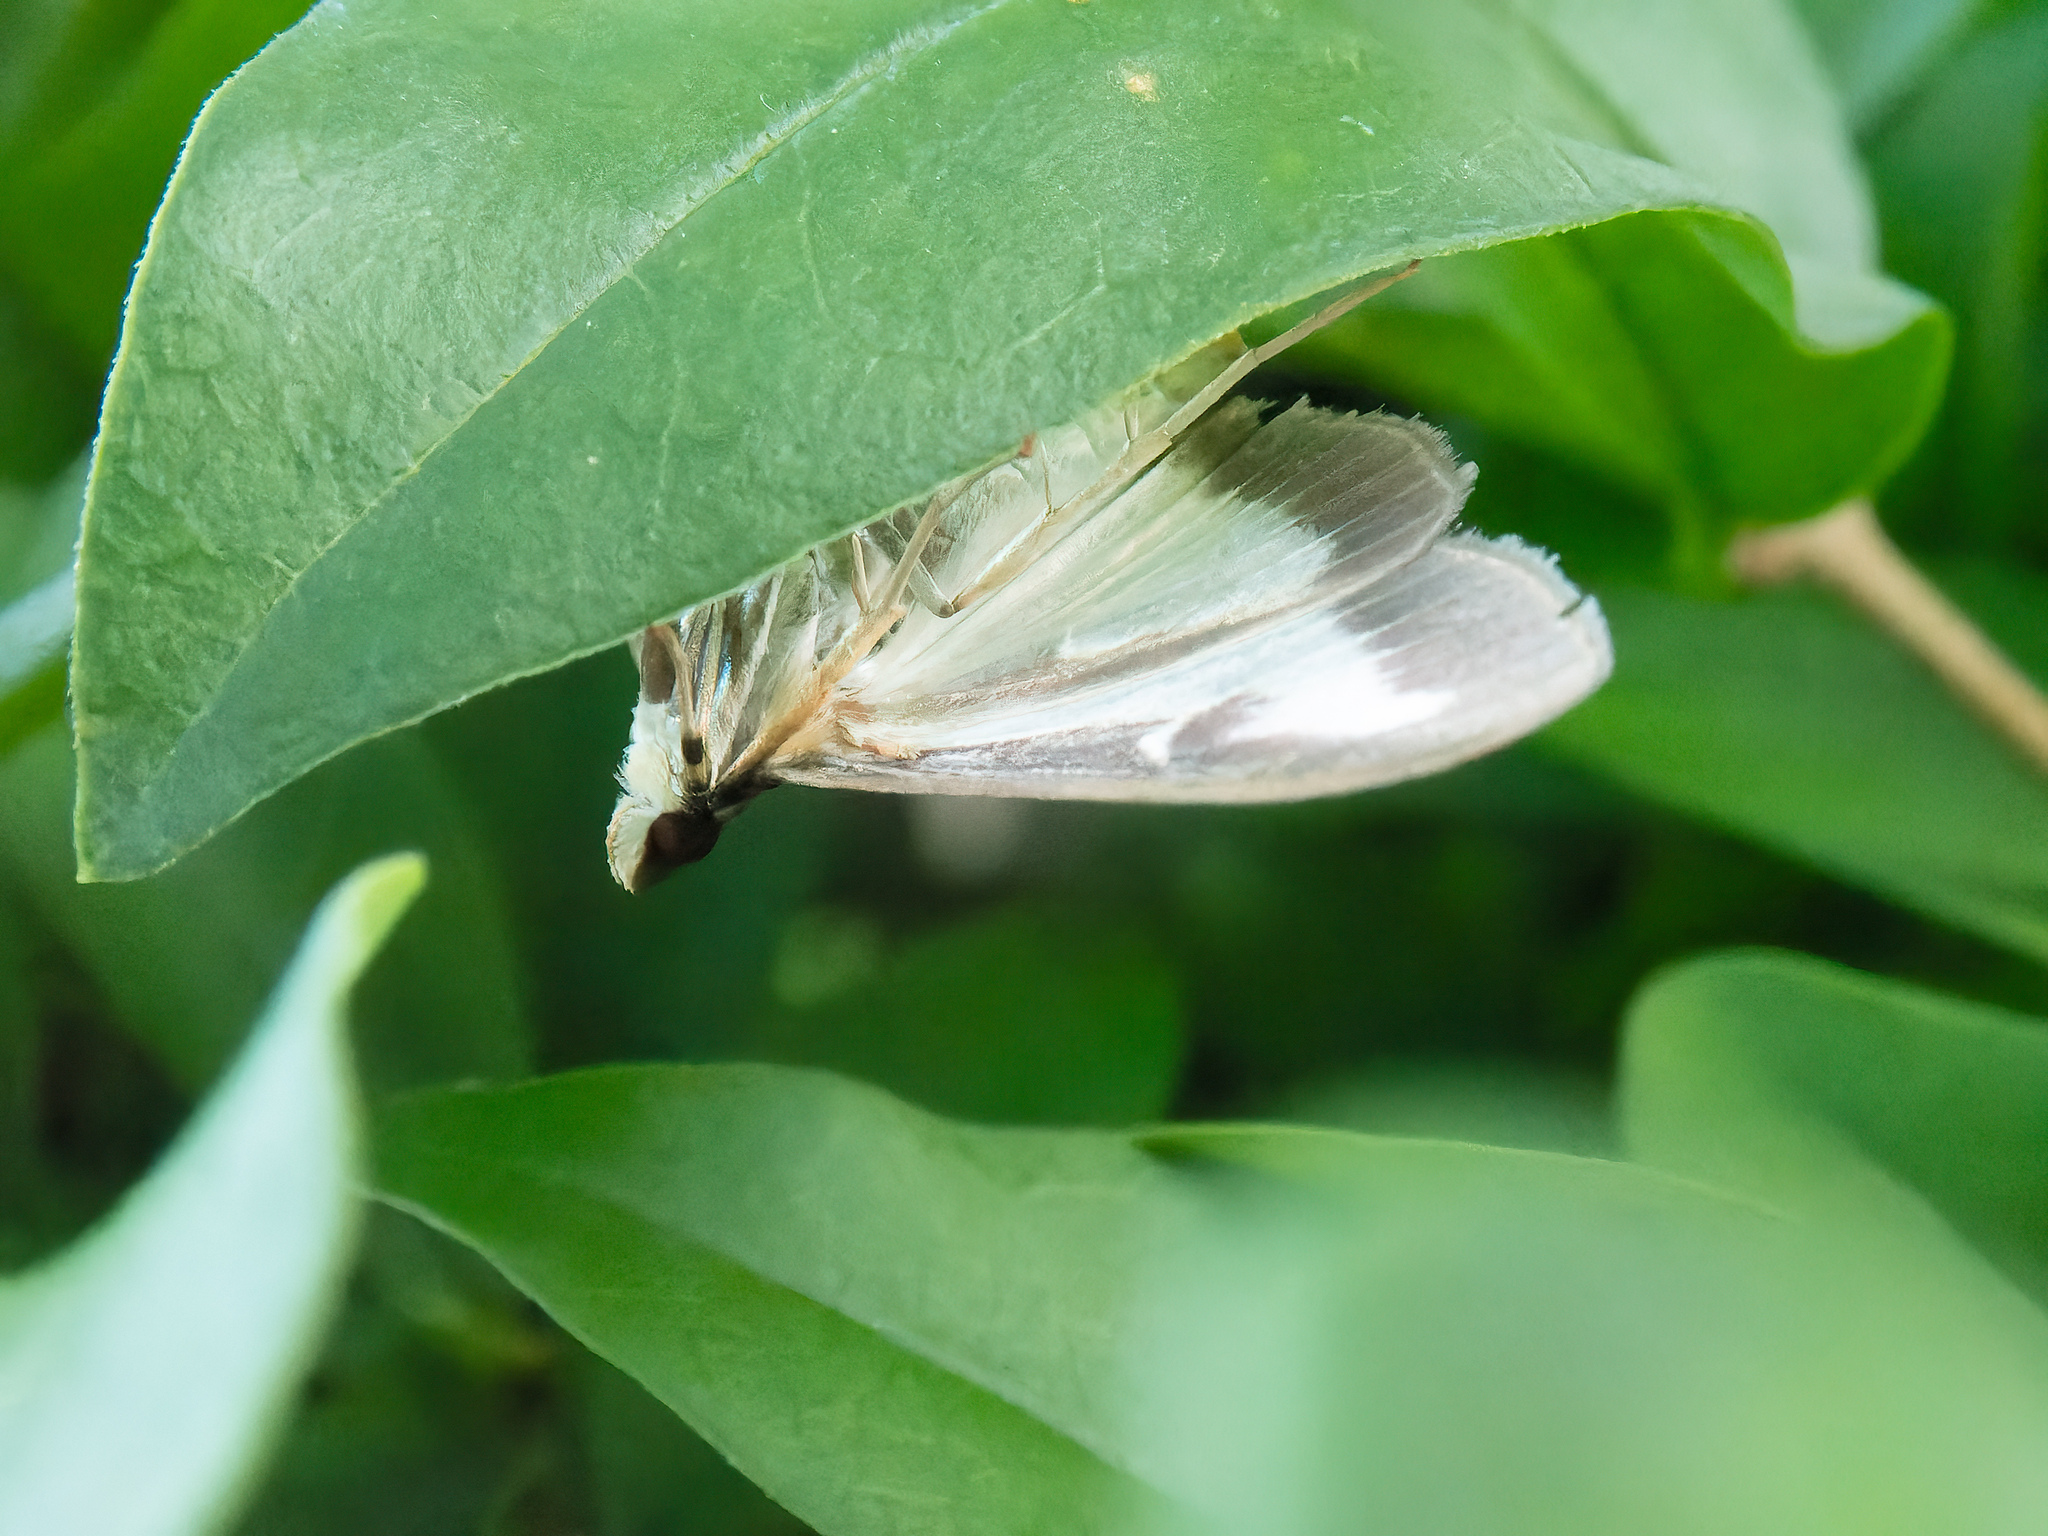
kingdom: Animalia
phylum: Arthropoda
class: Insecta
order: Lepidoptera
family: Crambidae
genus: Cydalima
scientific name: Cydalima perspectalis
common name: Box tree moth
